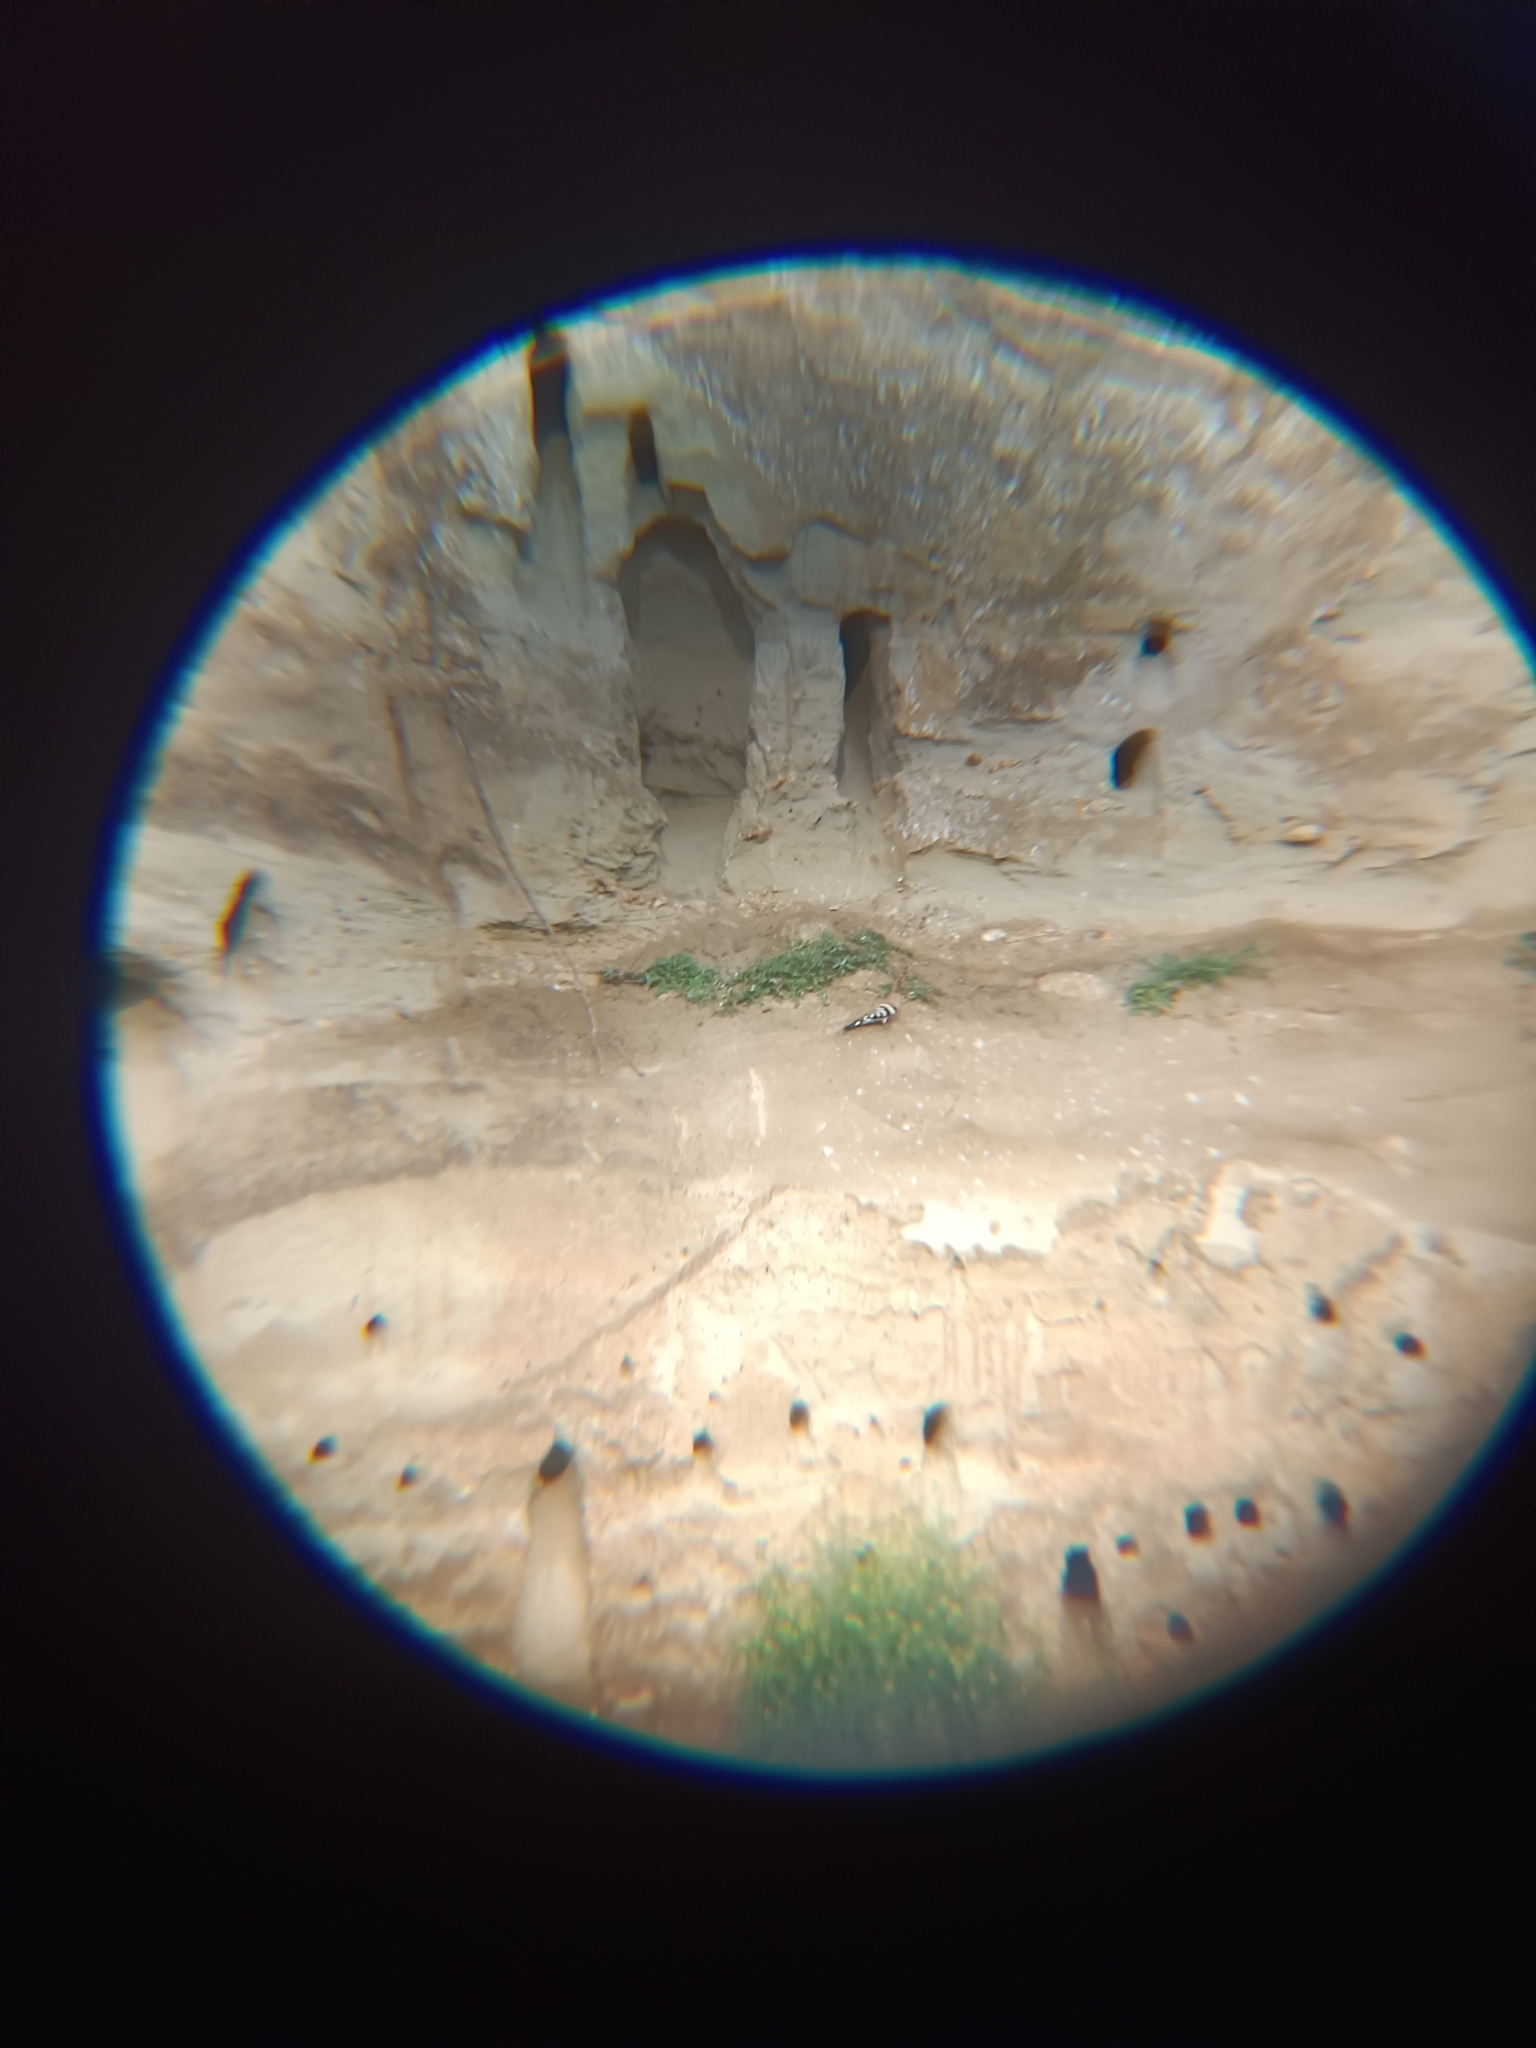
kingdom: Animalia
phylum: Chordata
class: Aves
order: Bucerotiformes
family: Upupidae
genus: Upupa
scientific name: Upupa epops
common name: Eurasian hoopoe
